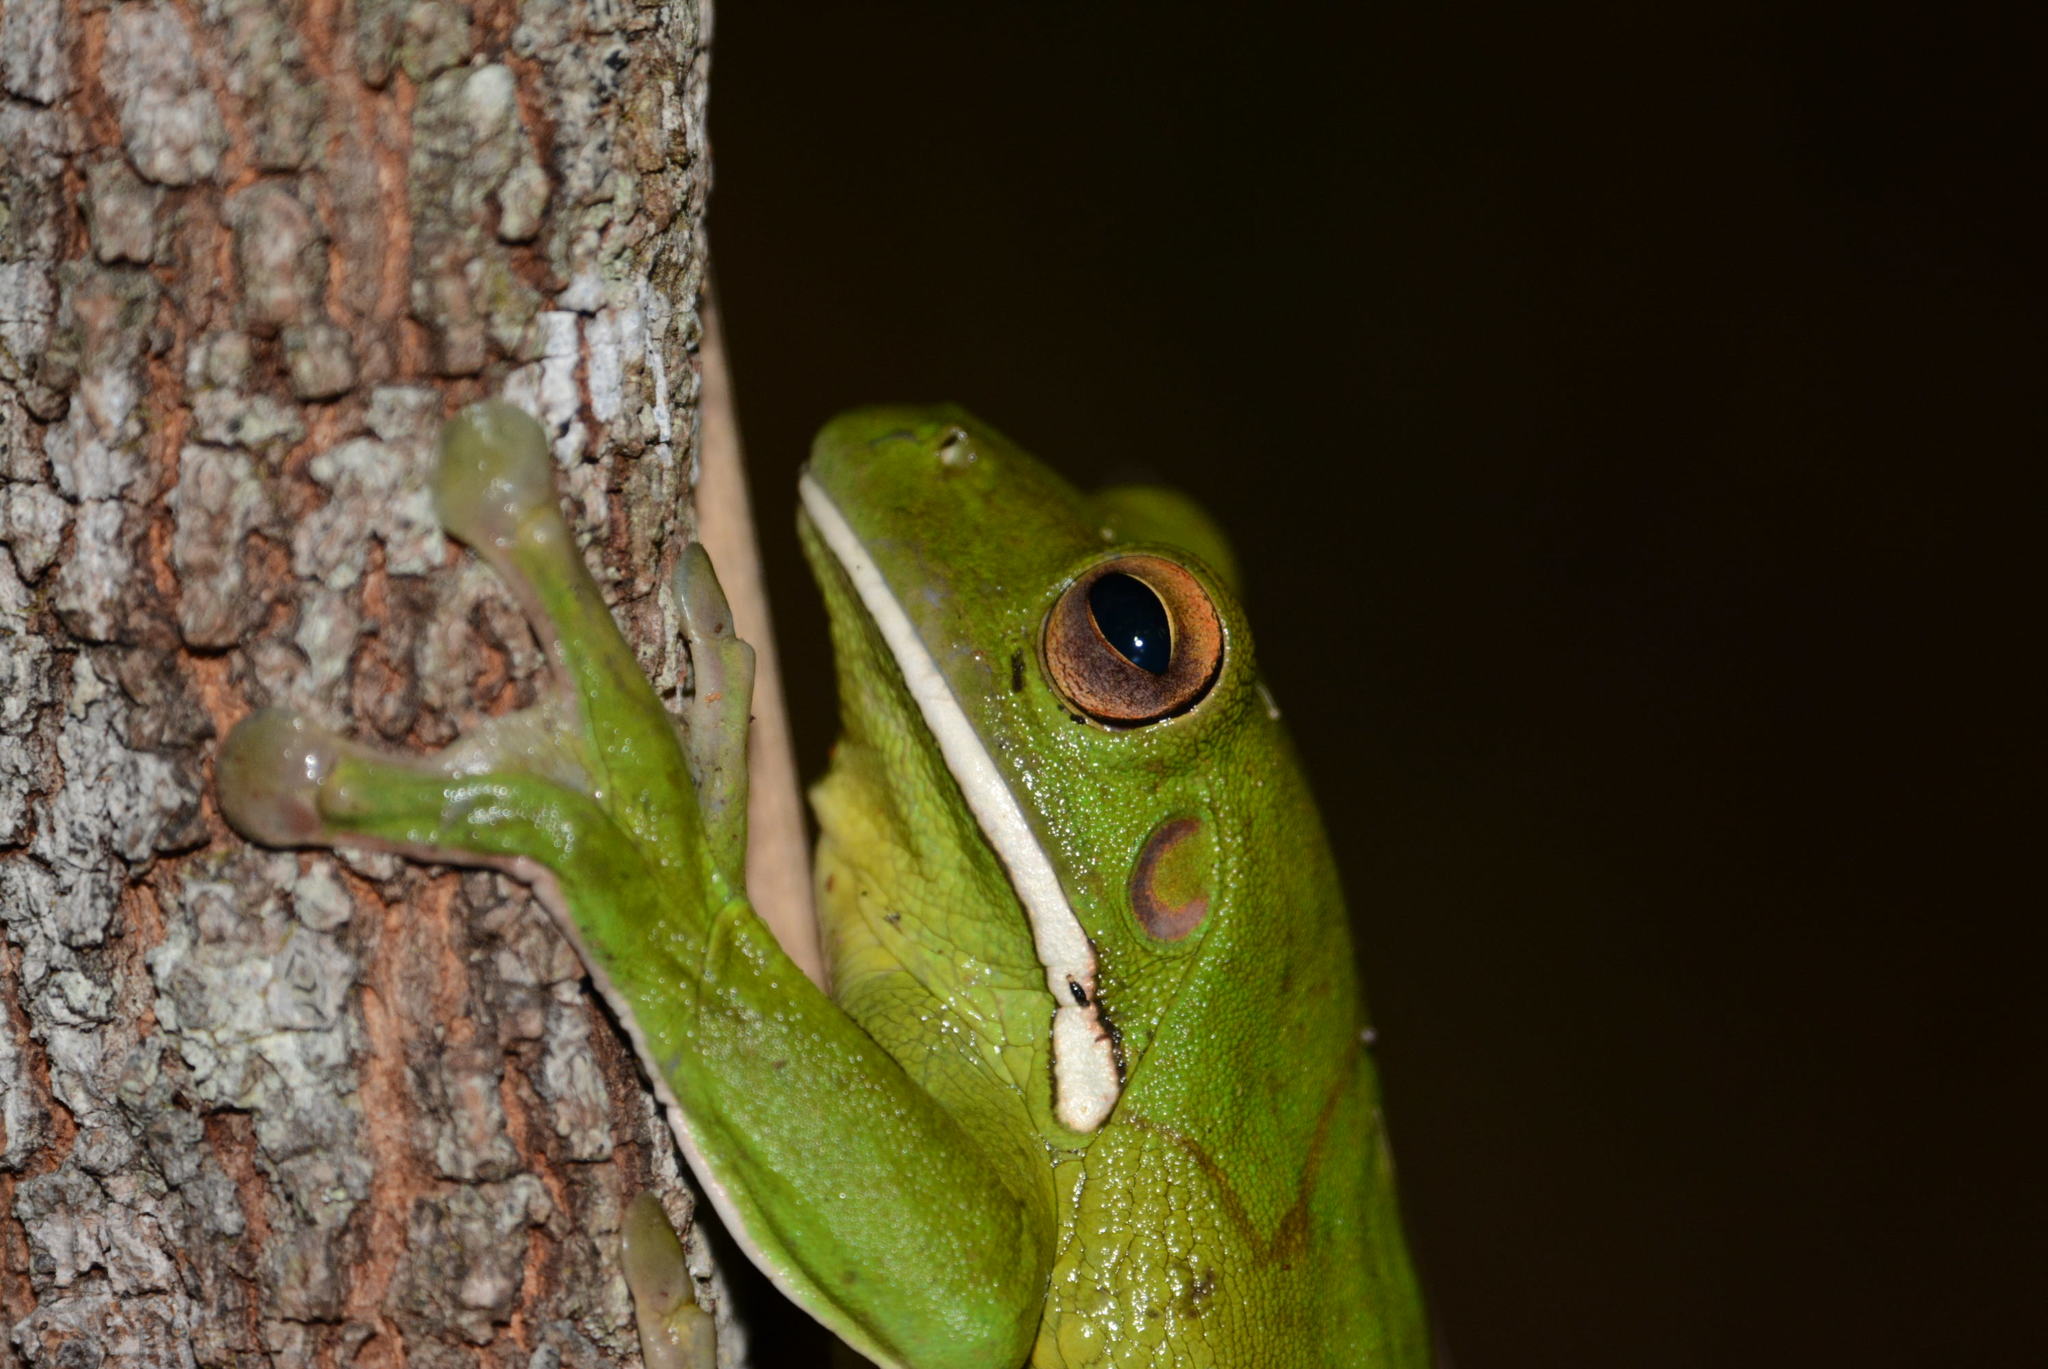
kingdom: Animalia
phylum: Chordata
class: Amphibia
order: Anura
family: Pelodryadidae
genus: Nyctimystes
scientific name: Nyctimystes infrafrenatus
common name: Australian giant treefrog
